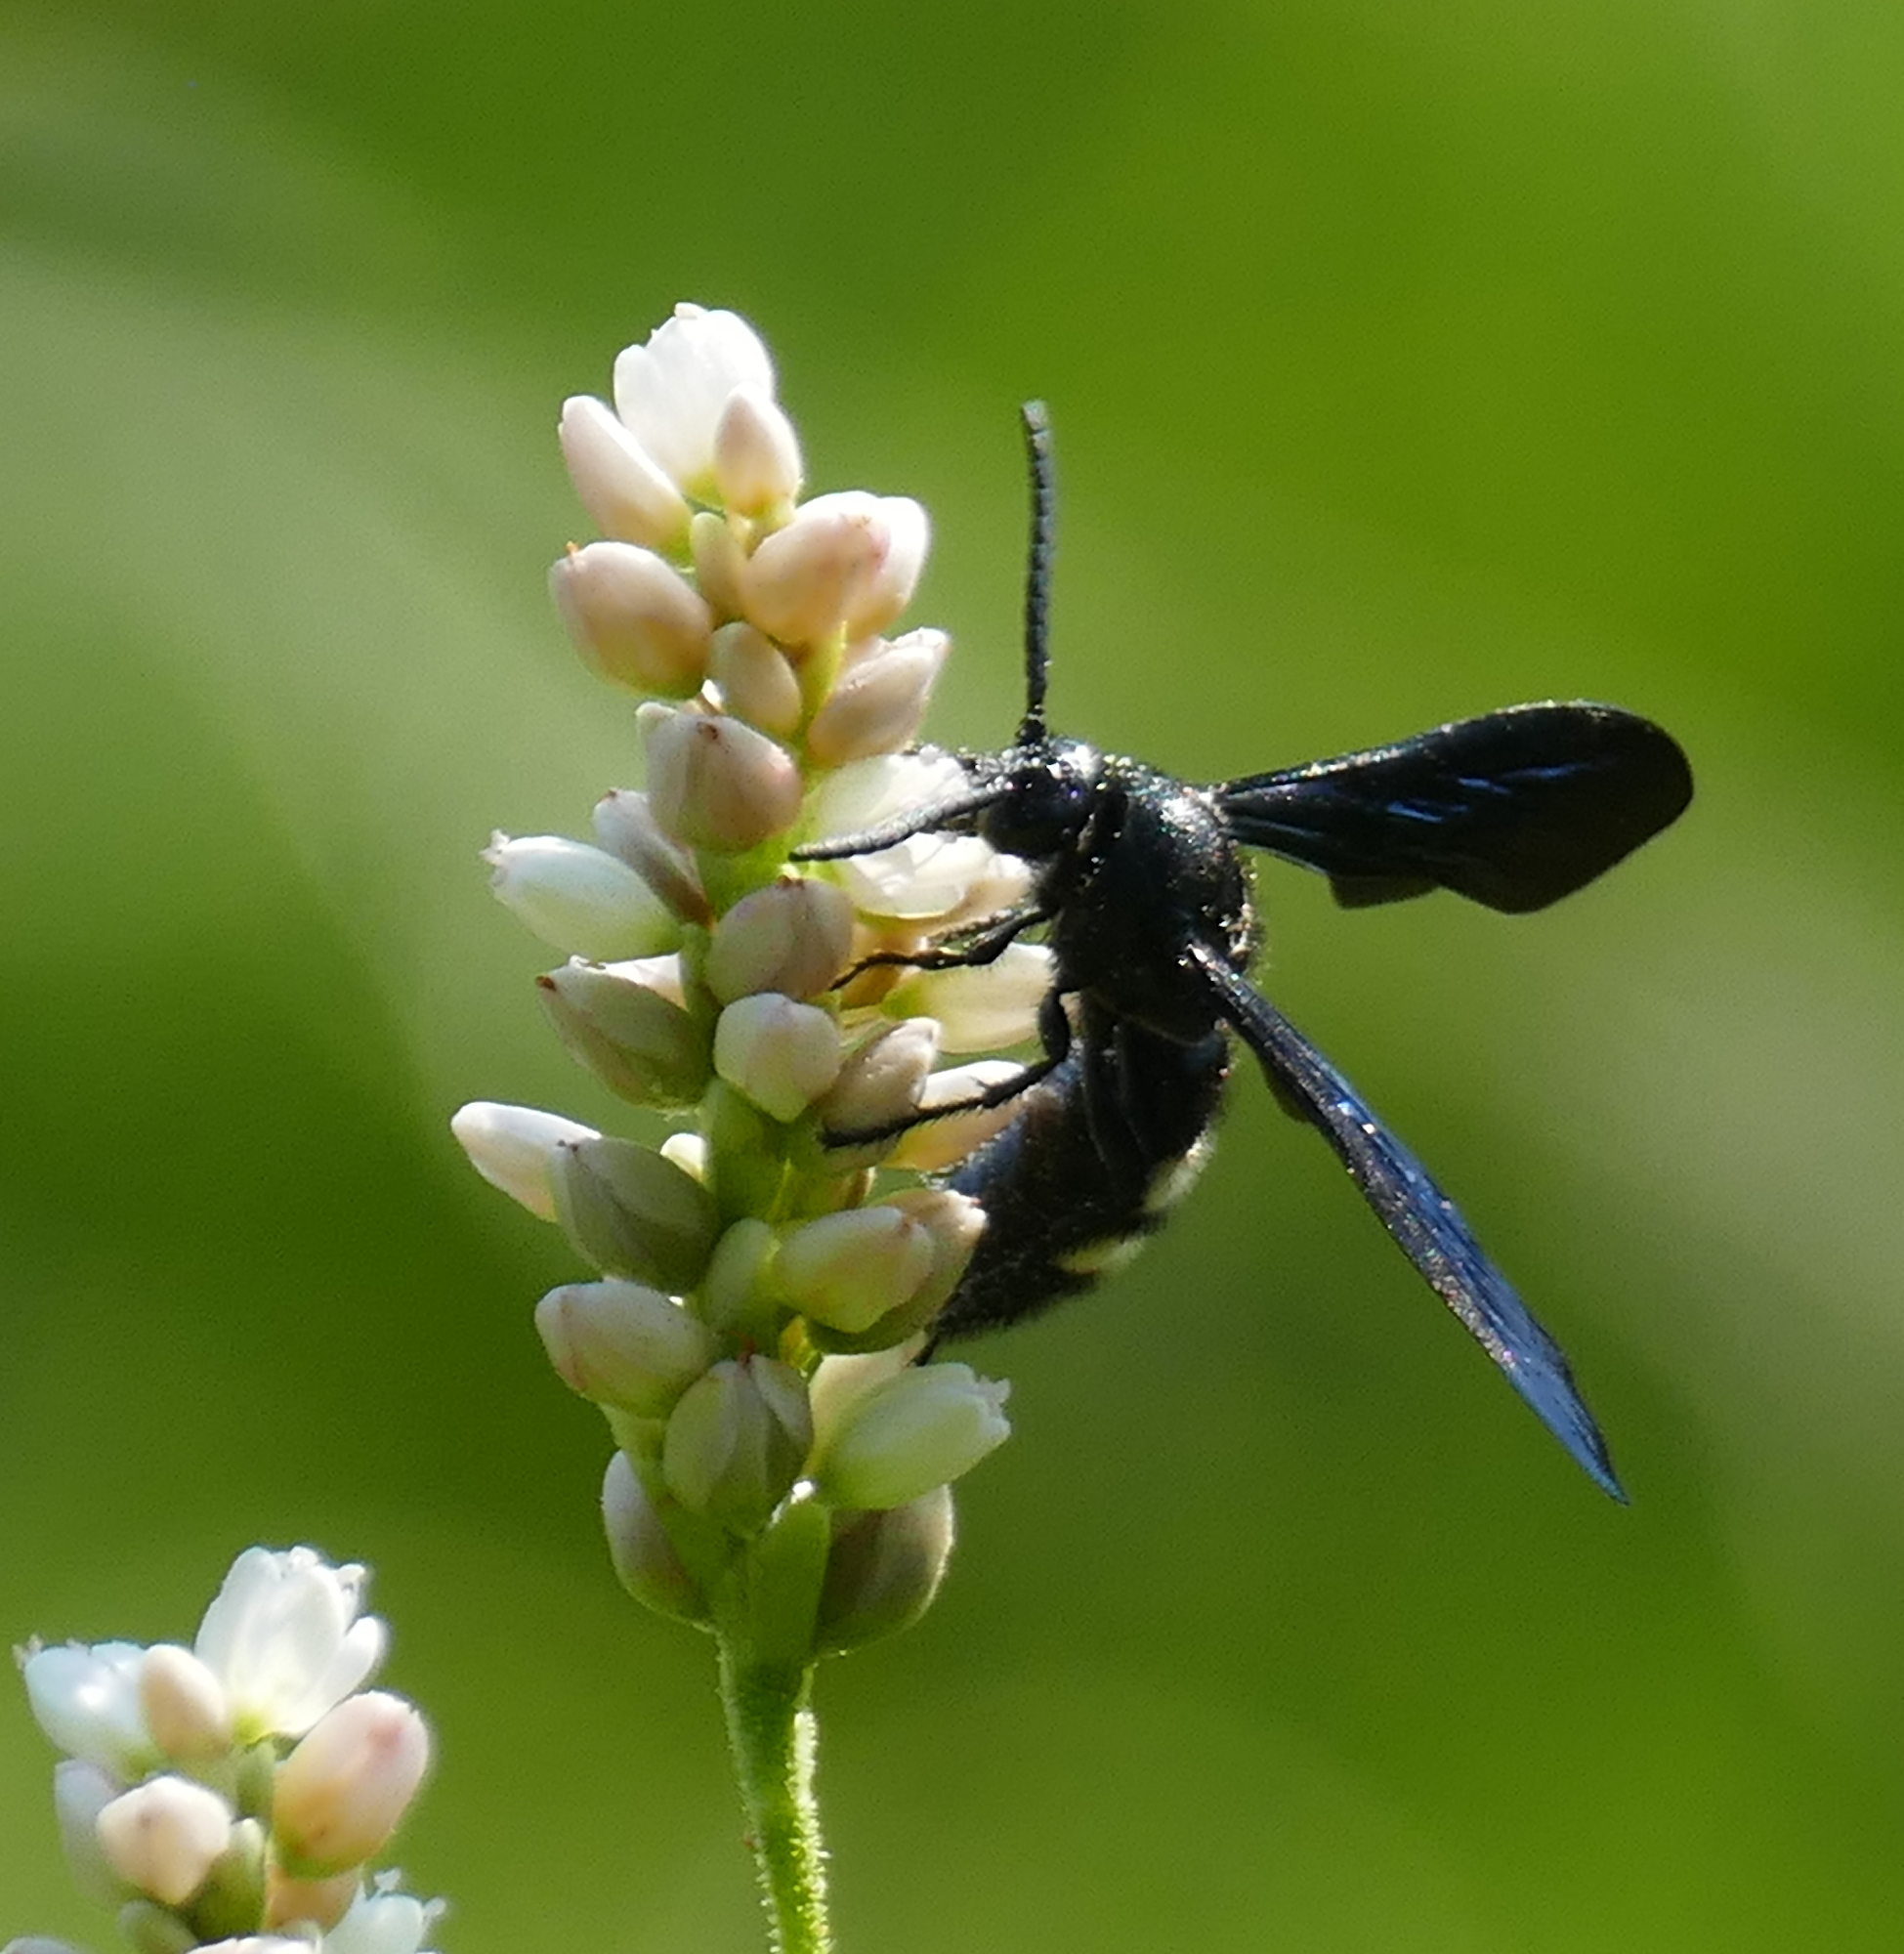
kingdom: Animalia
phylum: Arthropoda
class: Insecta
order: Hymenoptera
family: Scoliidae
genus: Scolia
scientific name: Scolia bicincta
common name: Double-banded scoliid wasp
